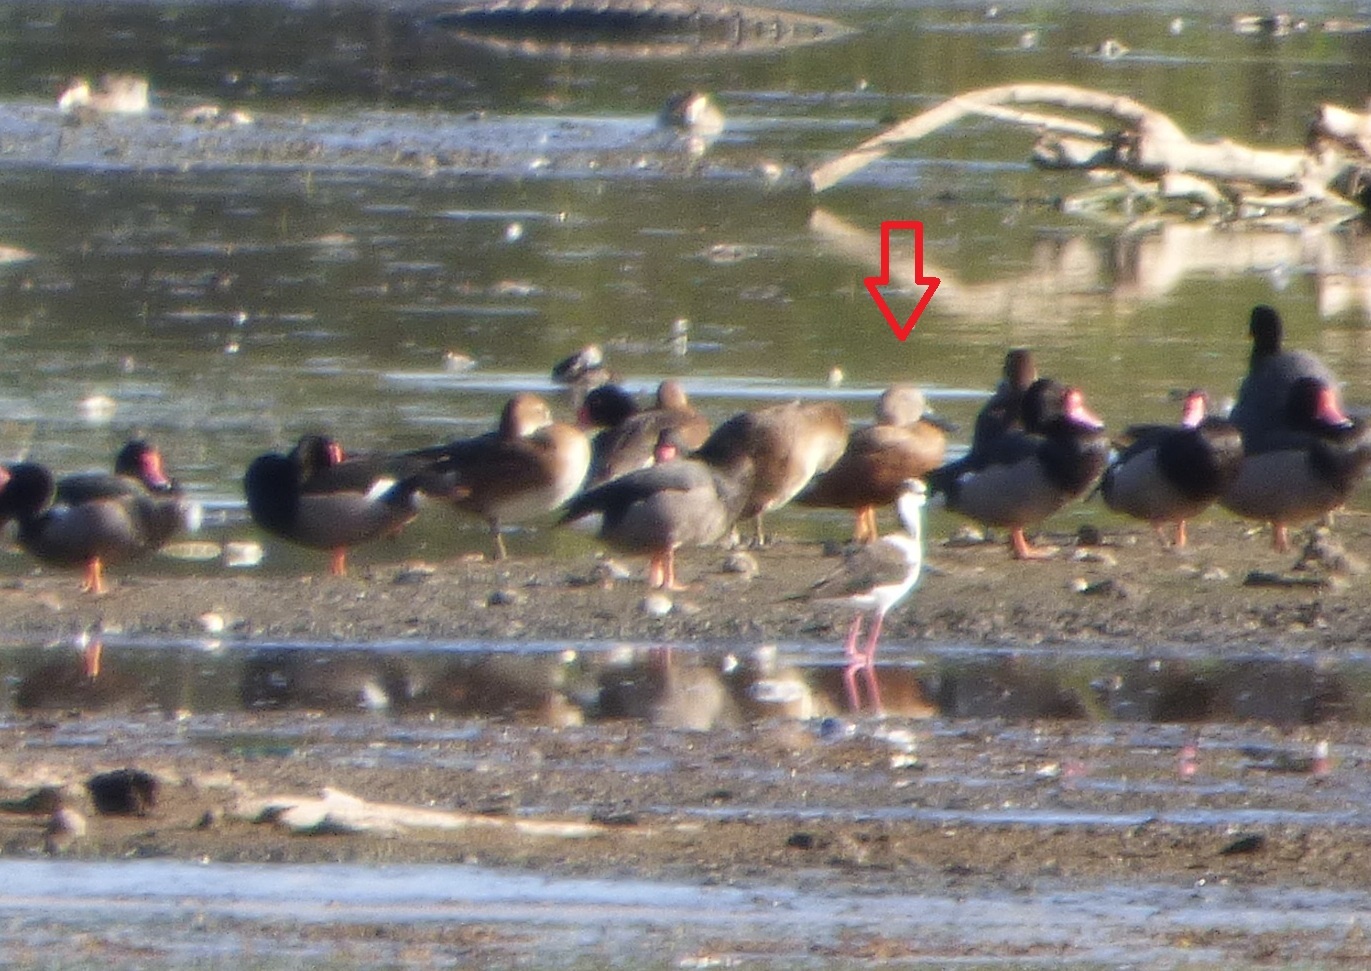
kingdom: Animalia
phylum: Chordata
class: Aves
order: Anseriformes
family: Anatidae
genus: Spatula
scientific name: Spatula platalea
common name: Red shoveler
